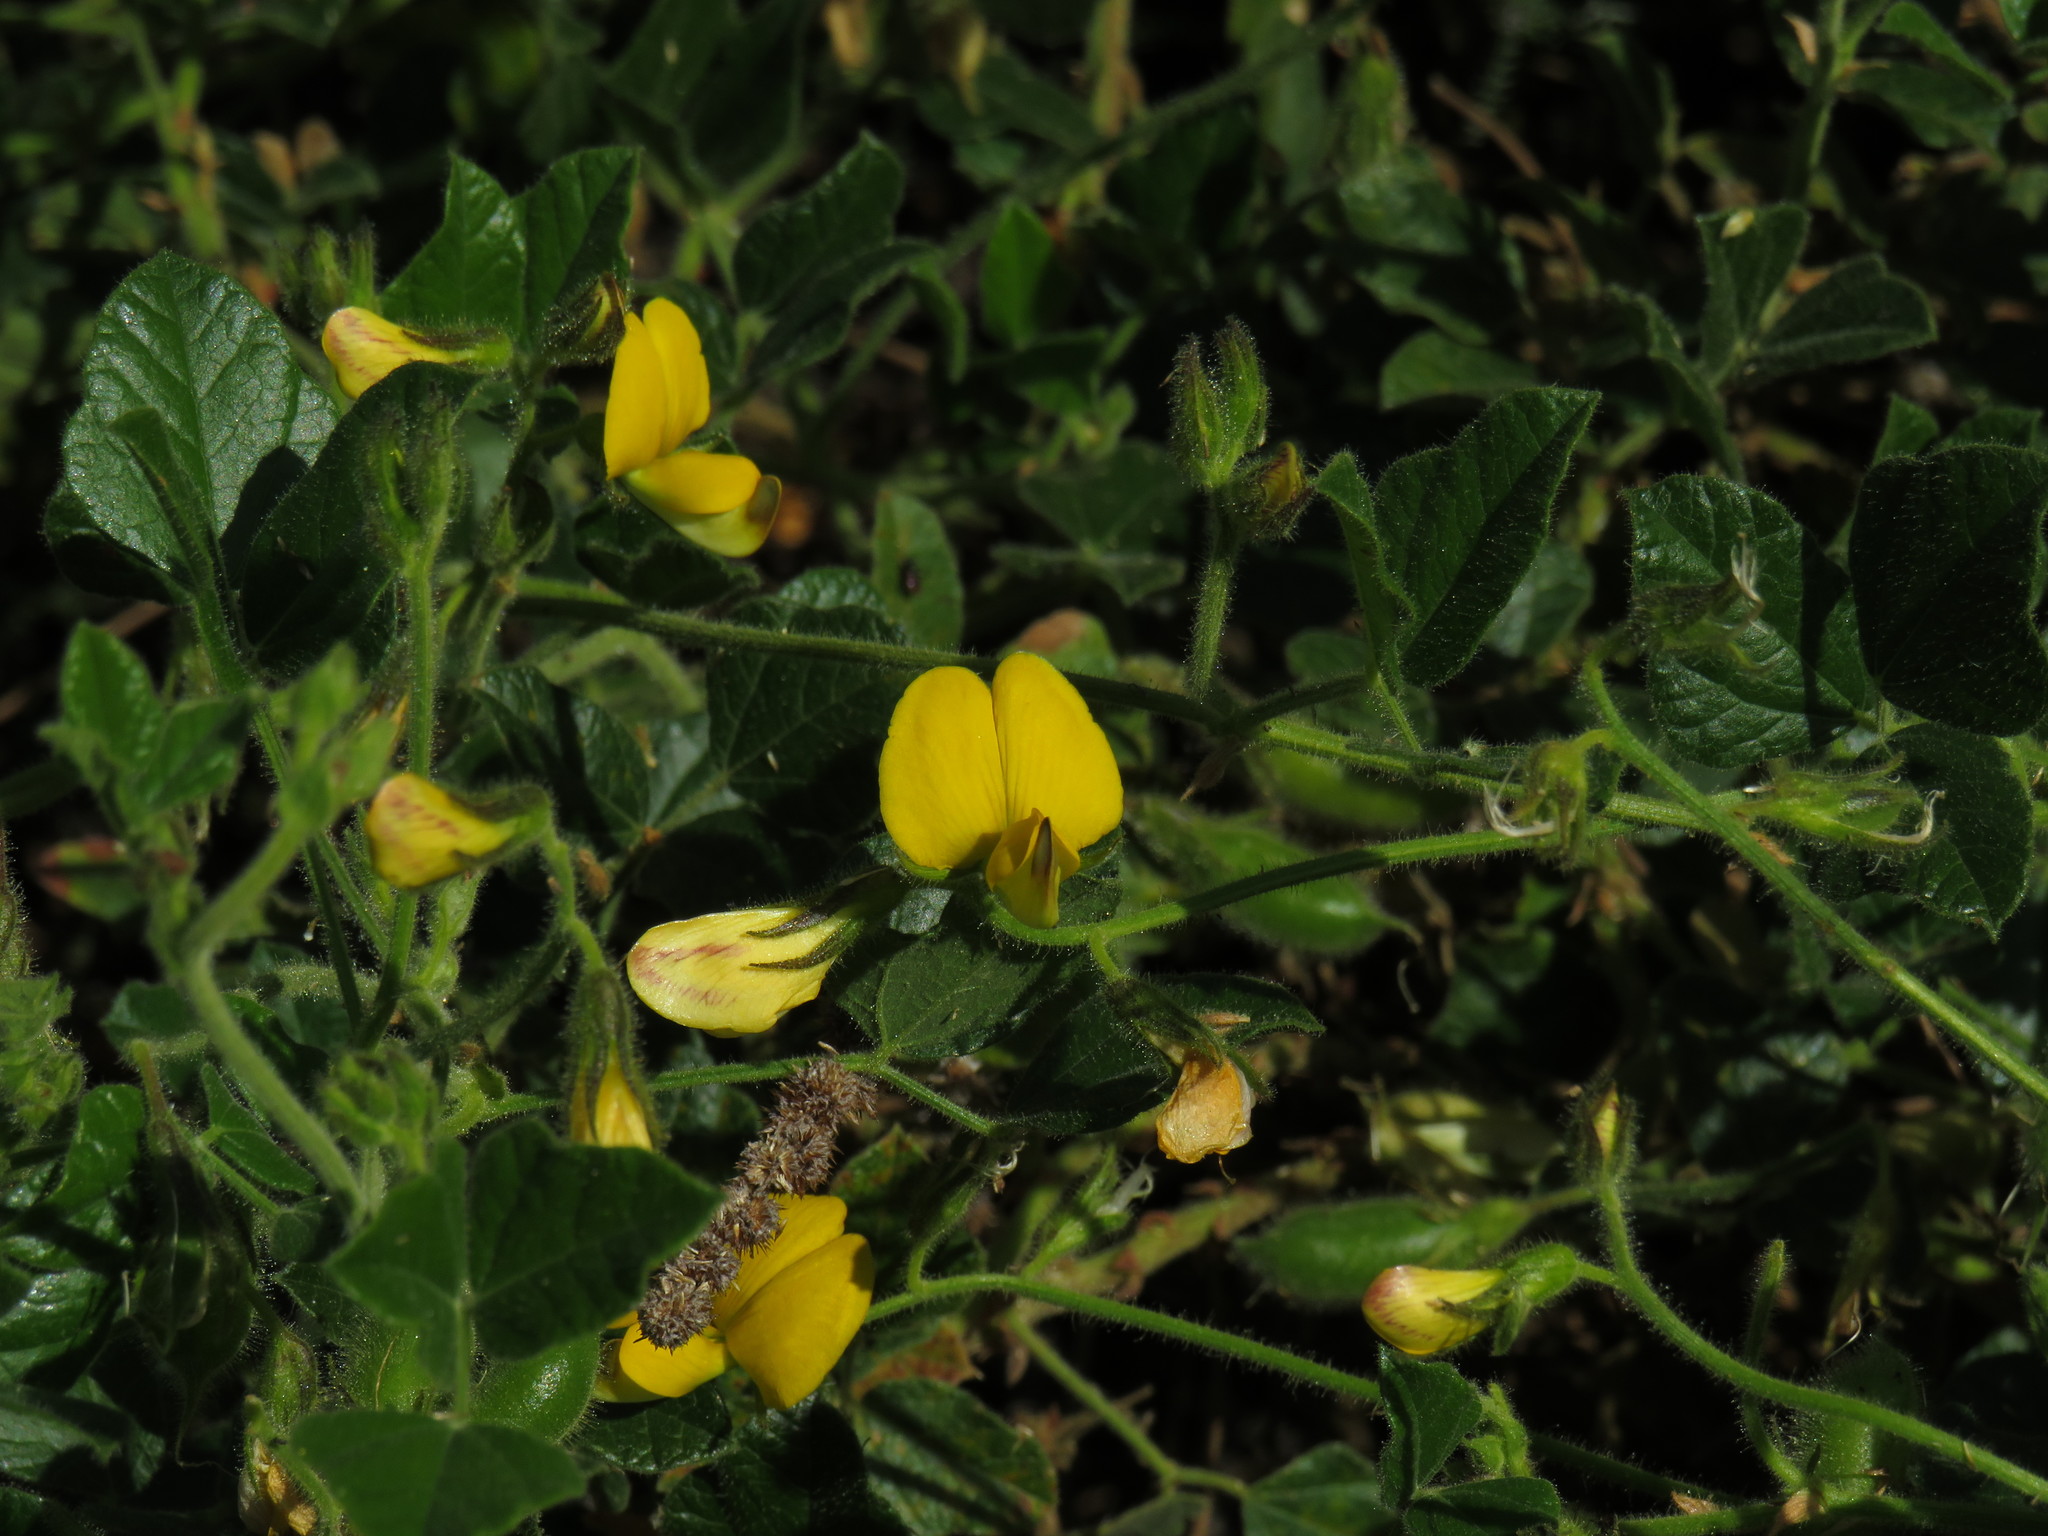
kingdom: Plantae
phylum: Tracheophyta
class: Magnoliopsida
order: Fabales
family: Fabaceae
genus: Bolusafra
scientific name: Bolusafra bituminosa
